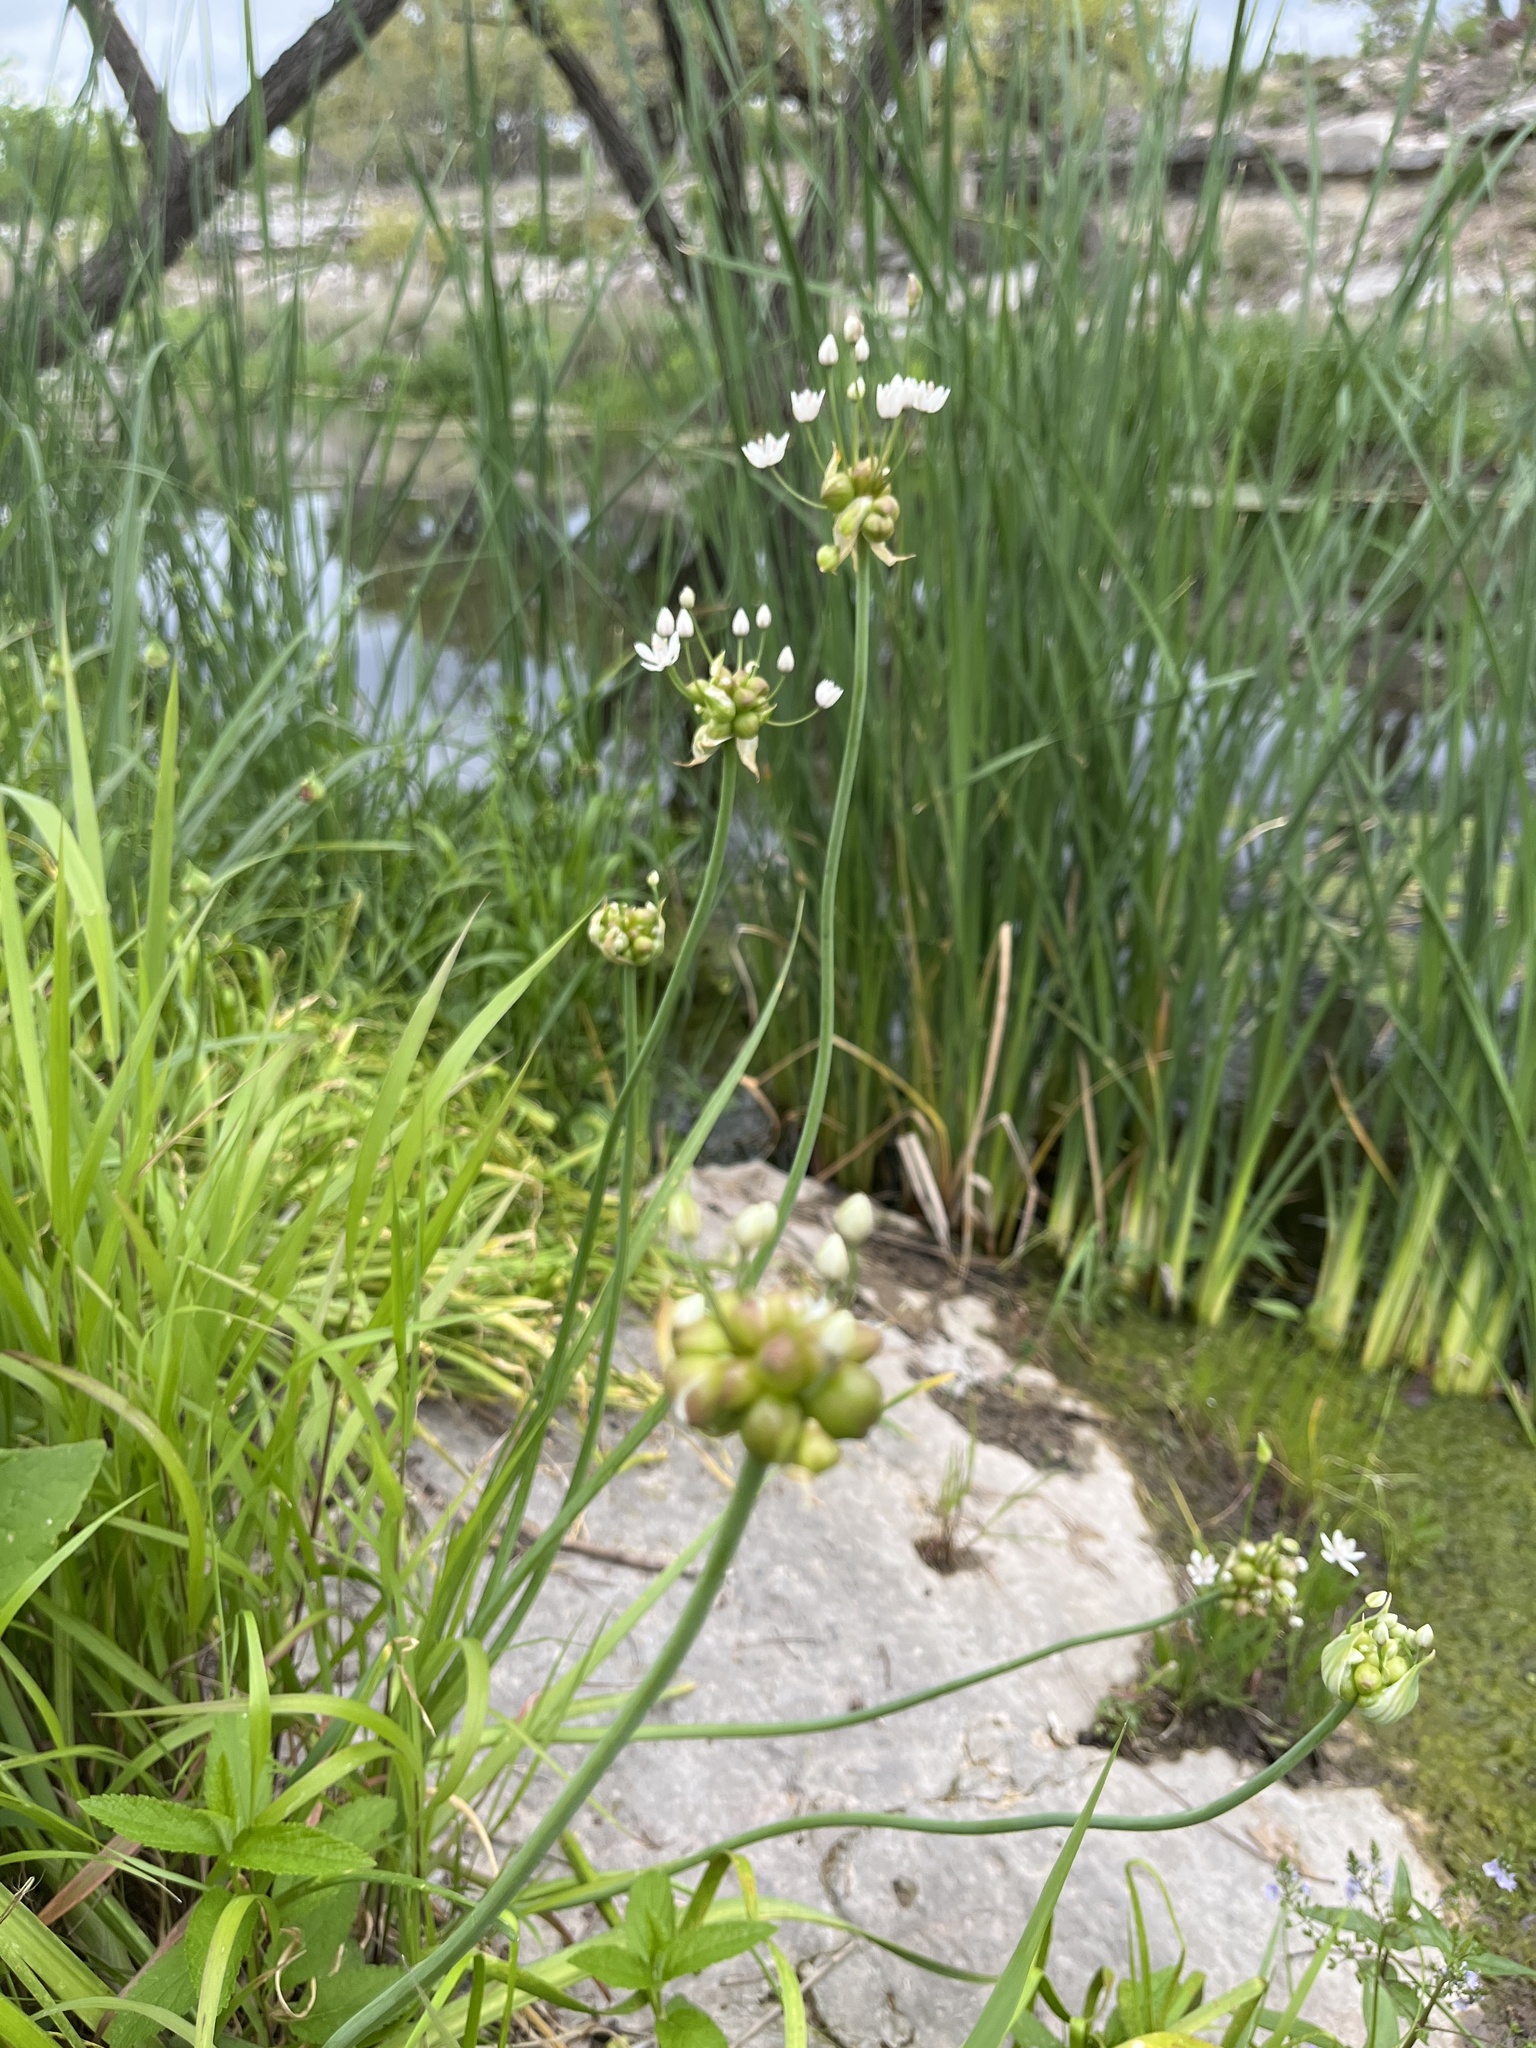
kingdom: Plantae
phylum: Tracheophyta
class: Liliopsida
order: Asparagales
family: Amaryllidaceae
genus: Allium
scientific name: Allium canadense
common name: Meadow garlic
